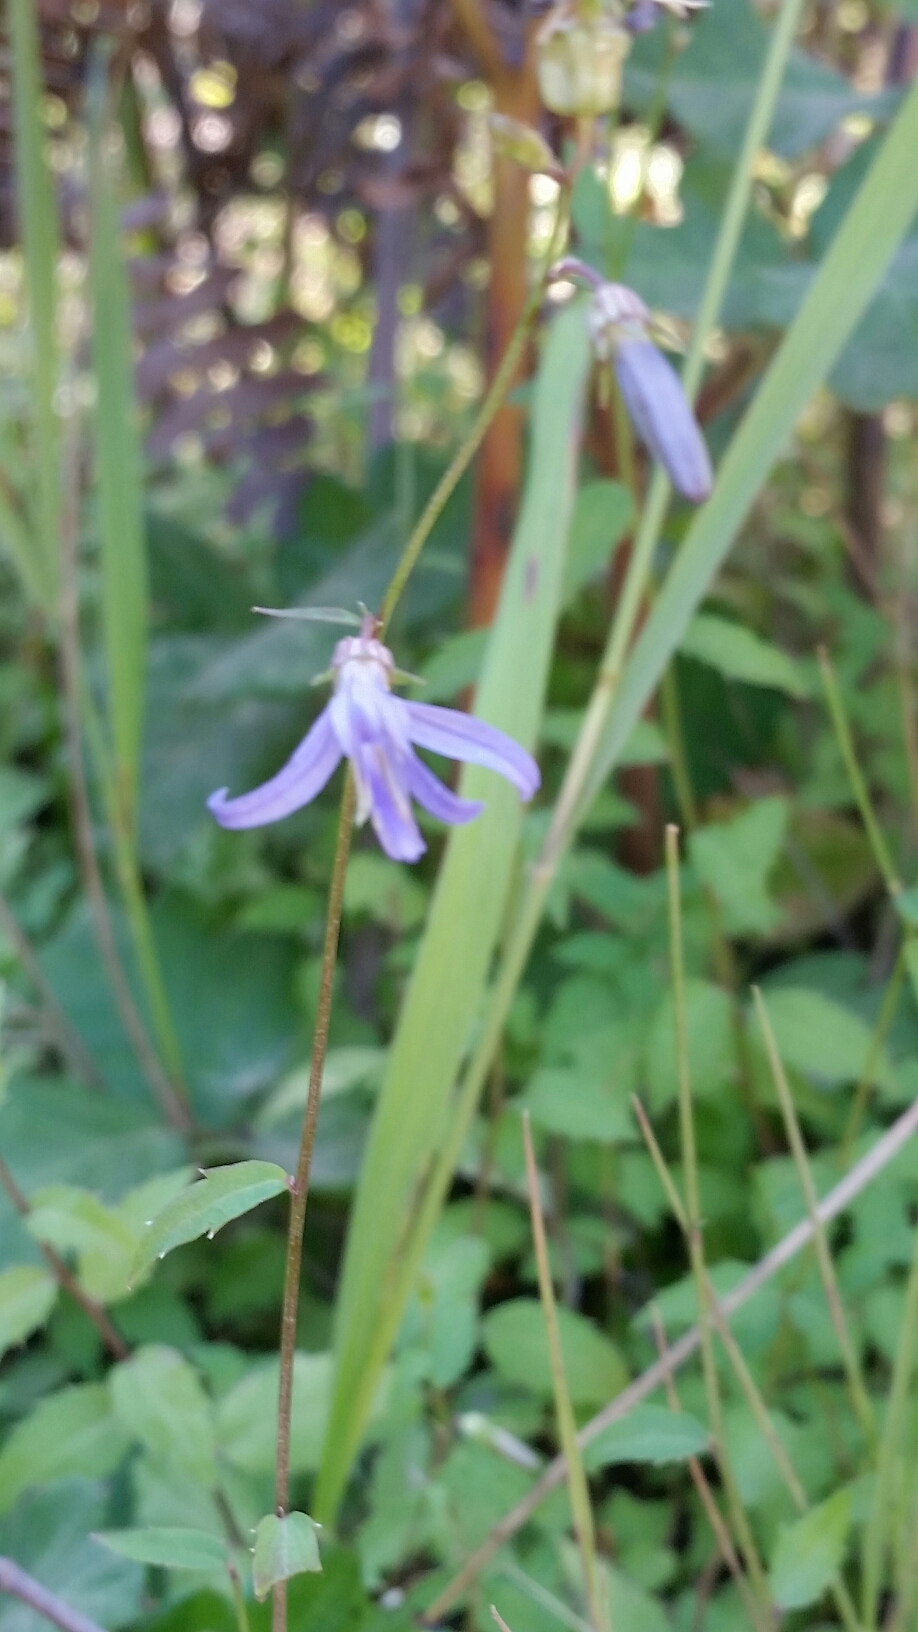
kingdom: Plantae
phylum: Tracheophyta
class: Magnoliopsida
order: Asterales
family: Campanulaceae
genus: Smithiastrum
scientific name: Smithiastrum prenanthoides
